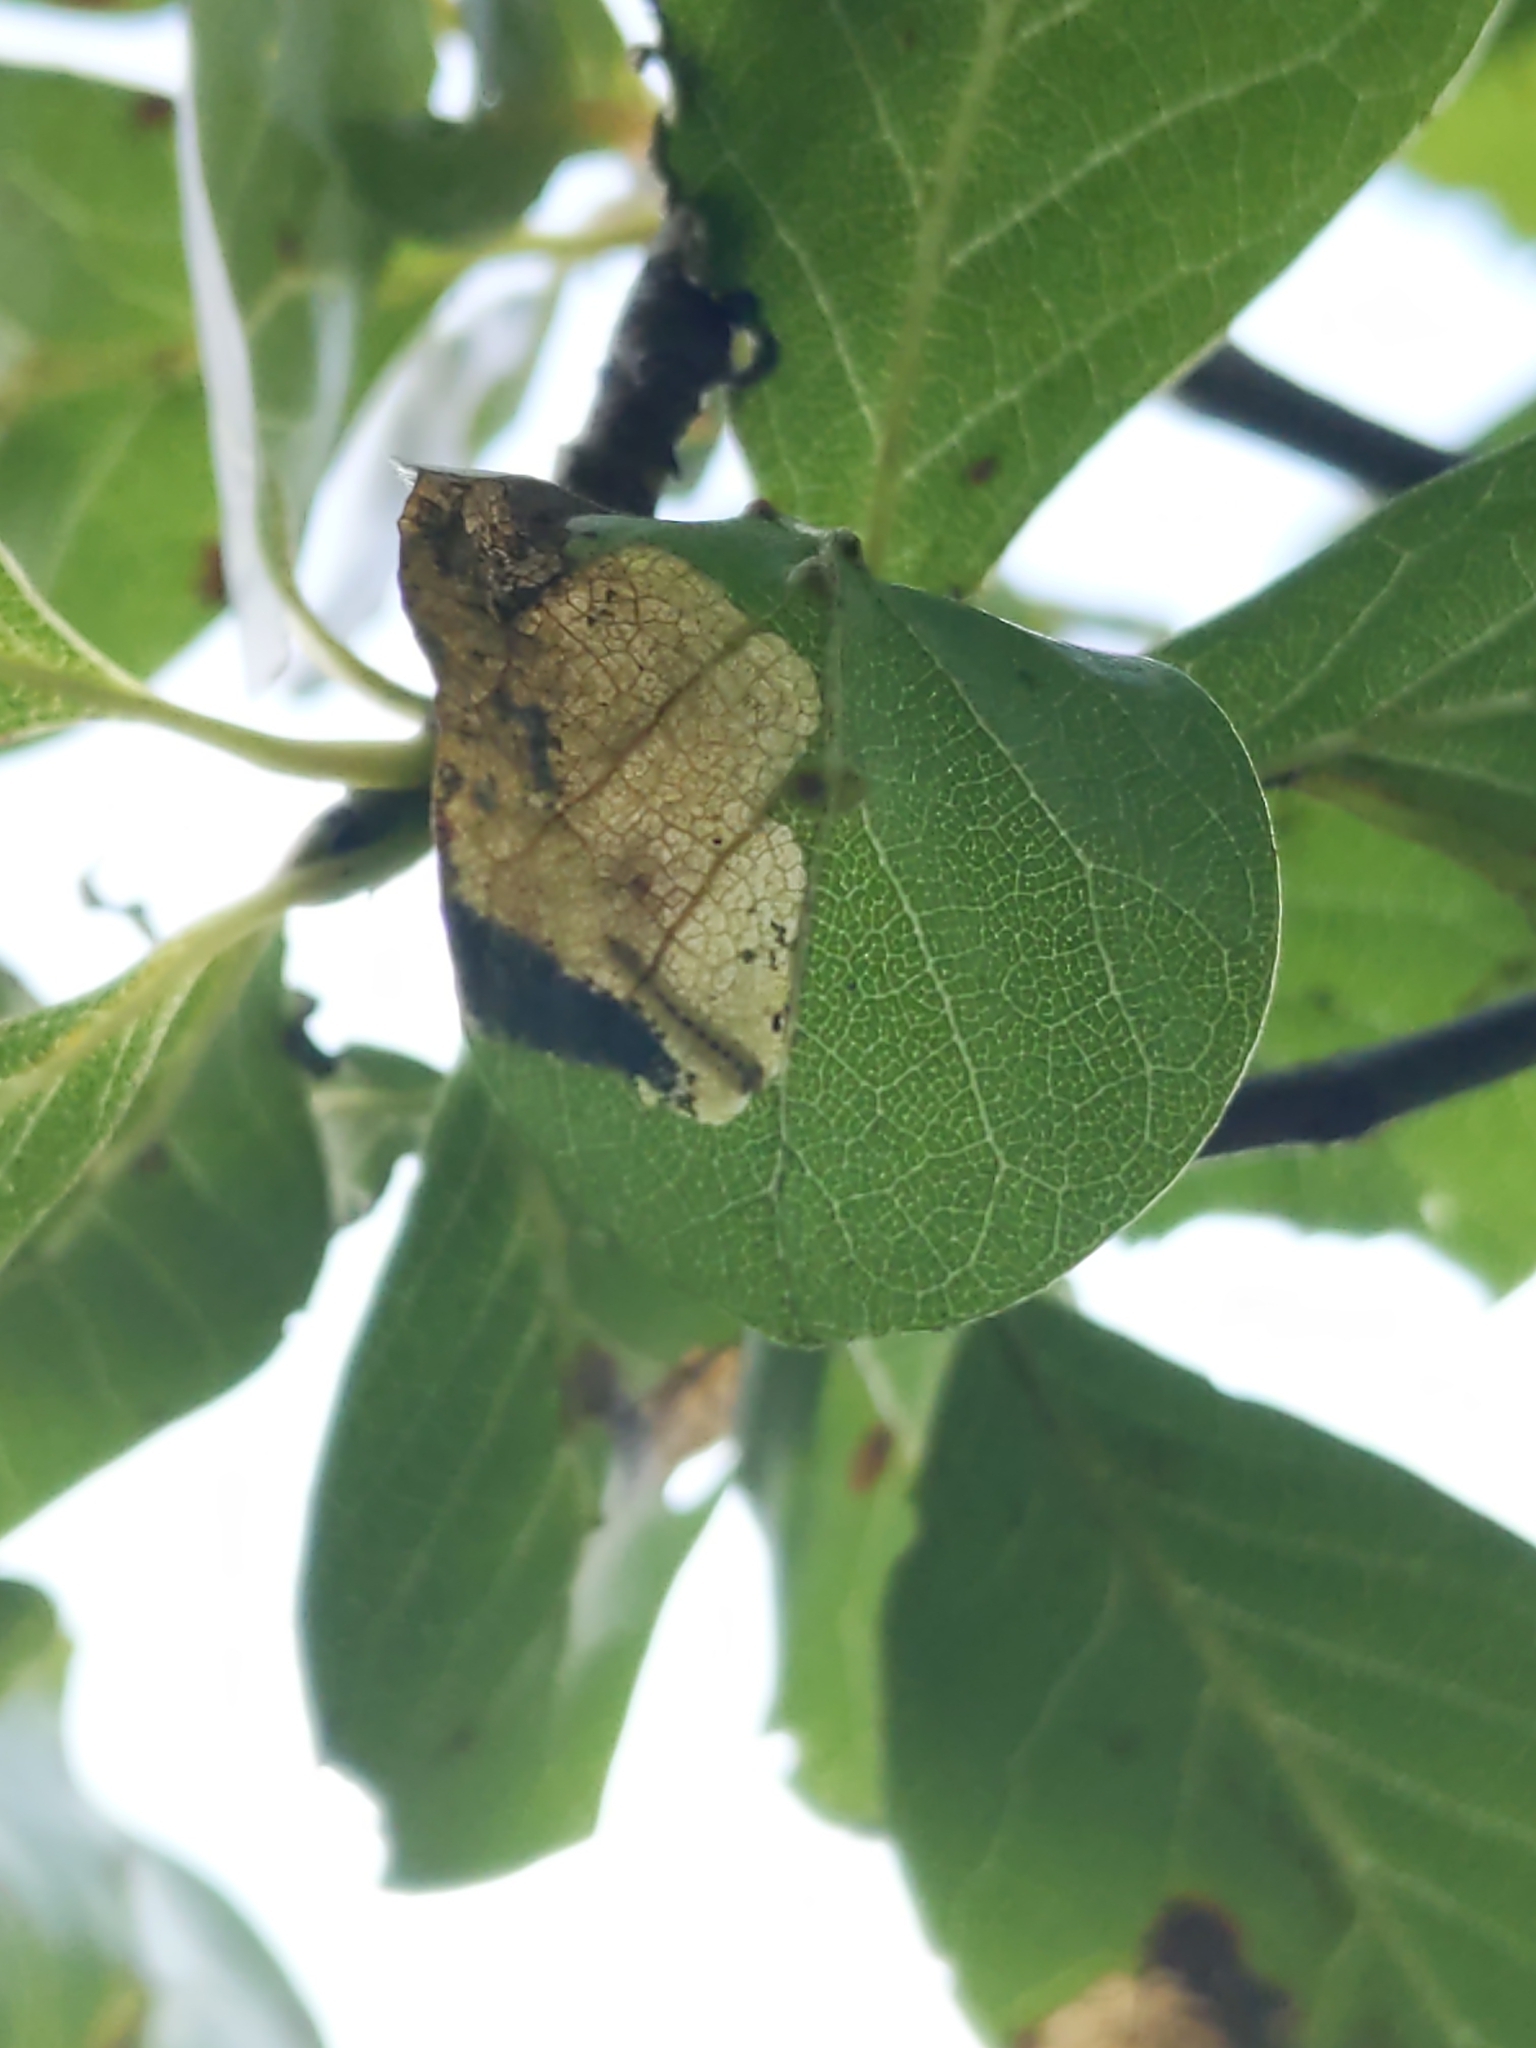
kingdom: Animalia
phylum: Arthropoda
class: Insecta
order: Lepidoptera
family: Heliozelidae
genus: Antispila
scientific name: Antispila nyssaefoliella
